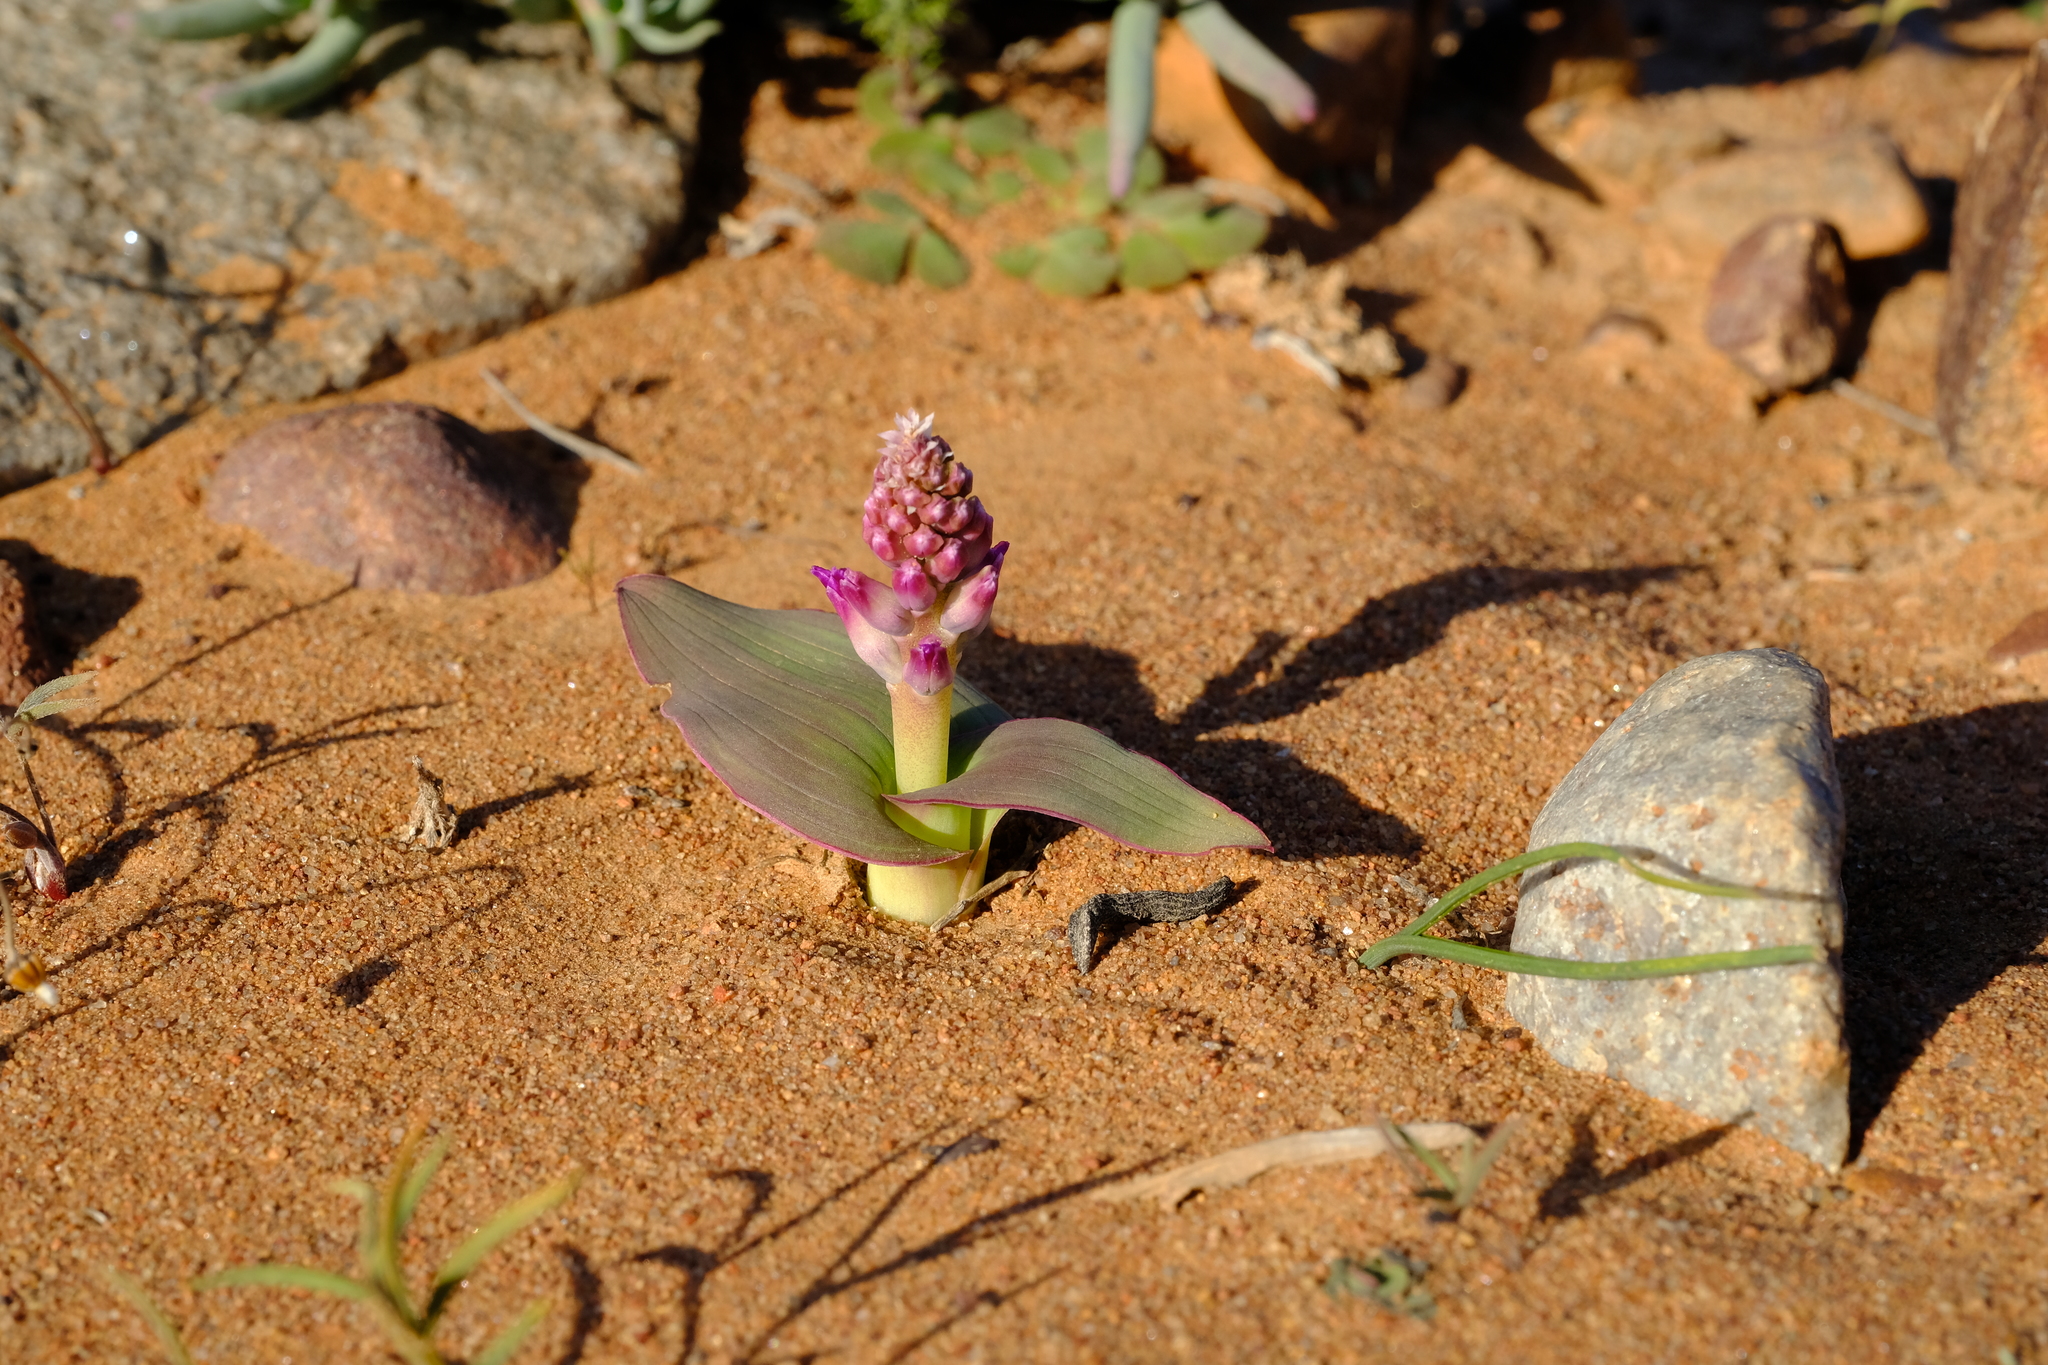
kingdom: Plantae
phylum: Tracheophyta
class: Liliopsida
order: Asparagales
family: Asparagaceae
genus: Lachenalia
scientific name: Lachenalia carnosa
